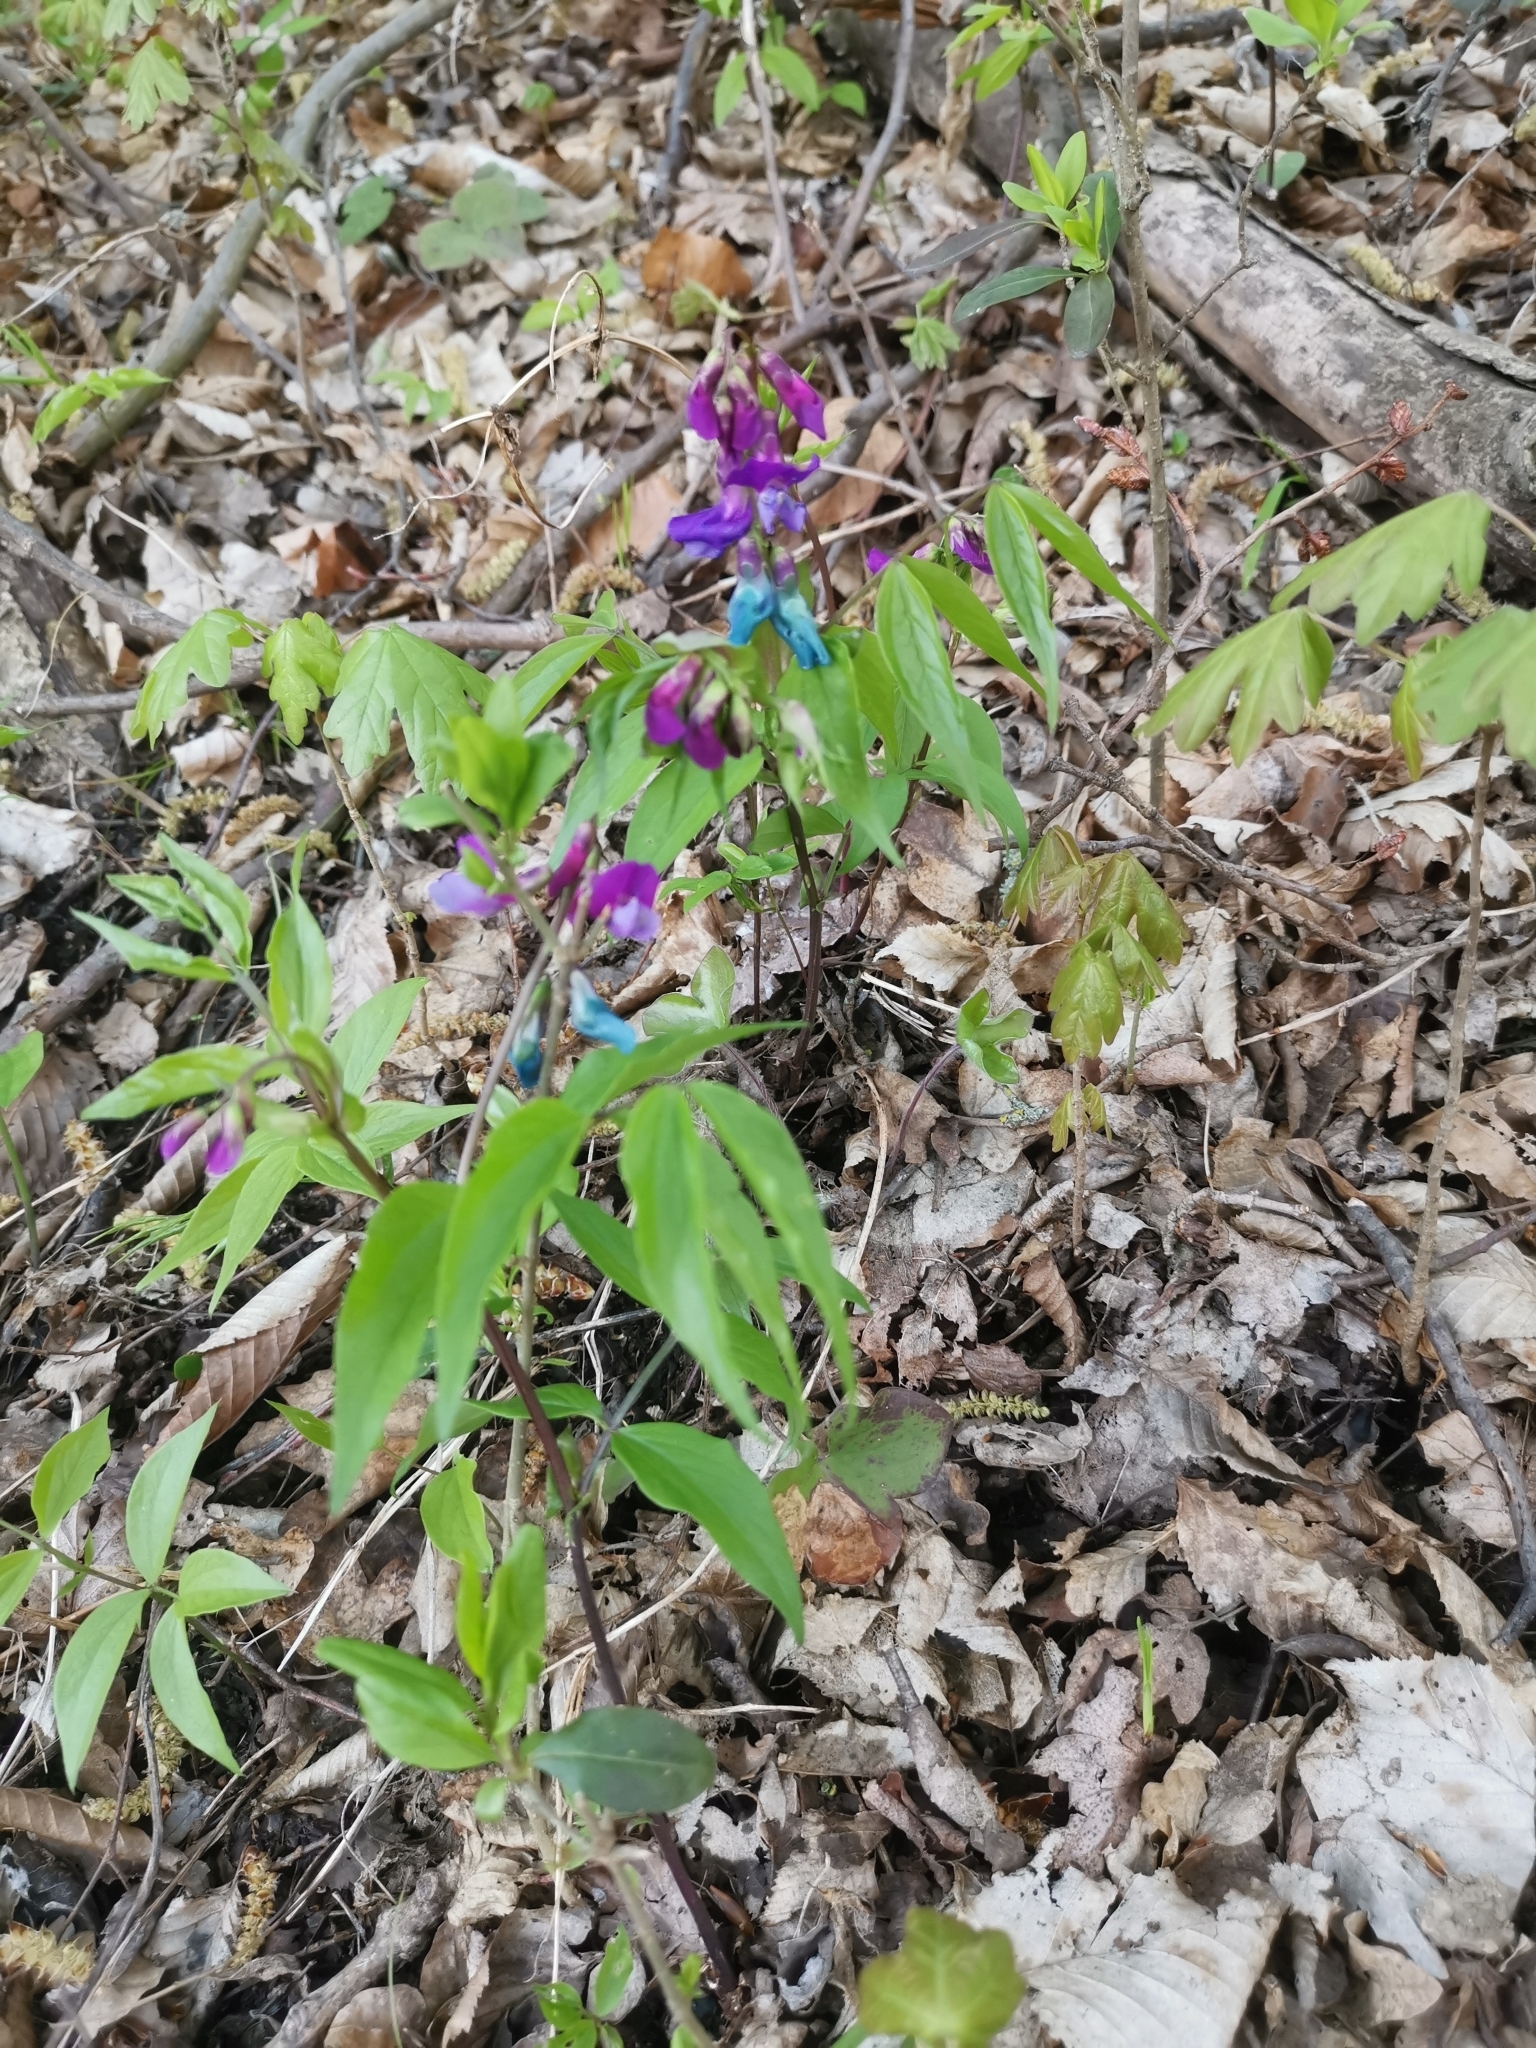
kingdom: Plantae
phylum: Tracheophyta
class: Magnoliopsida
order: Fabales
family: Fabaceae
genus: Lathyrus
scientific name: Lathyrus vernus
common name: Spring pea
